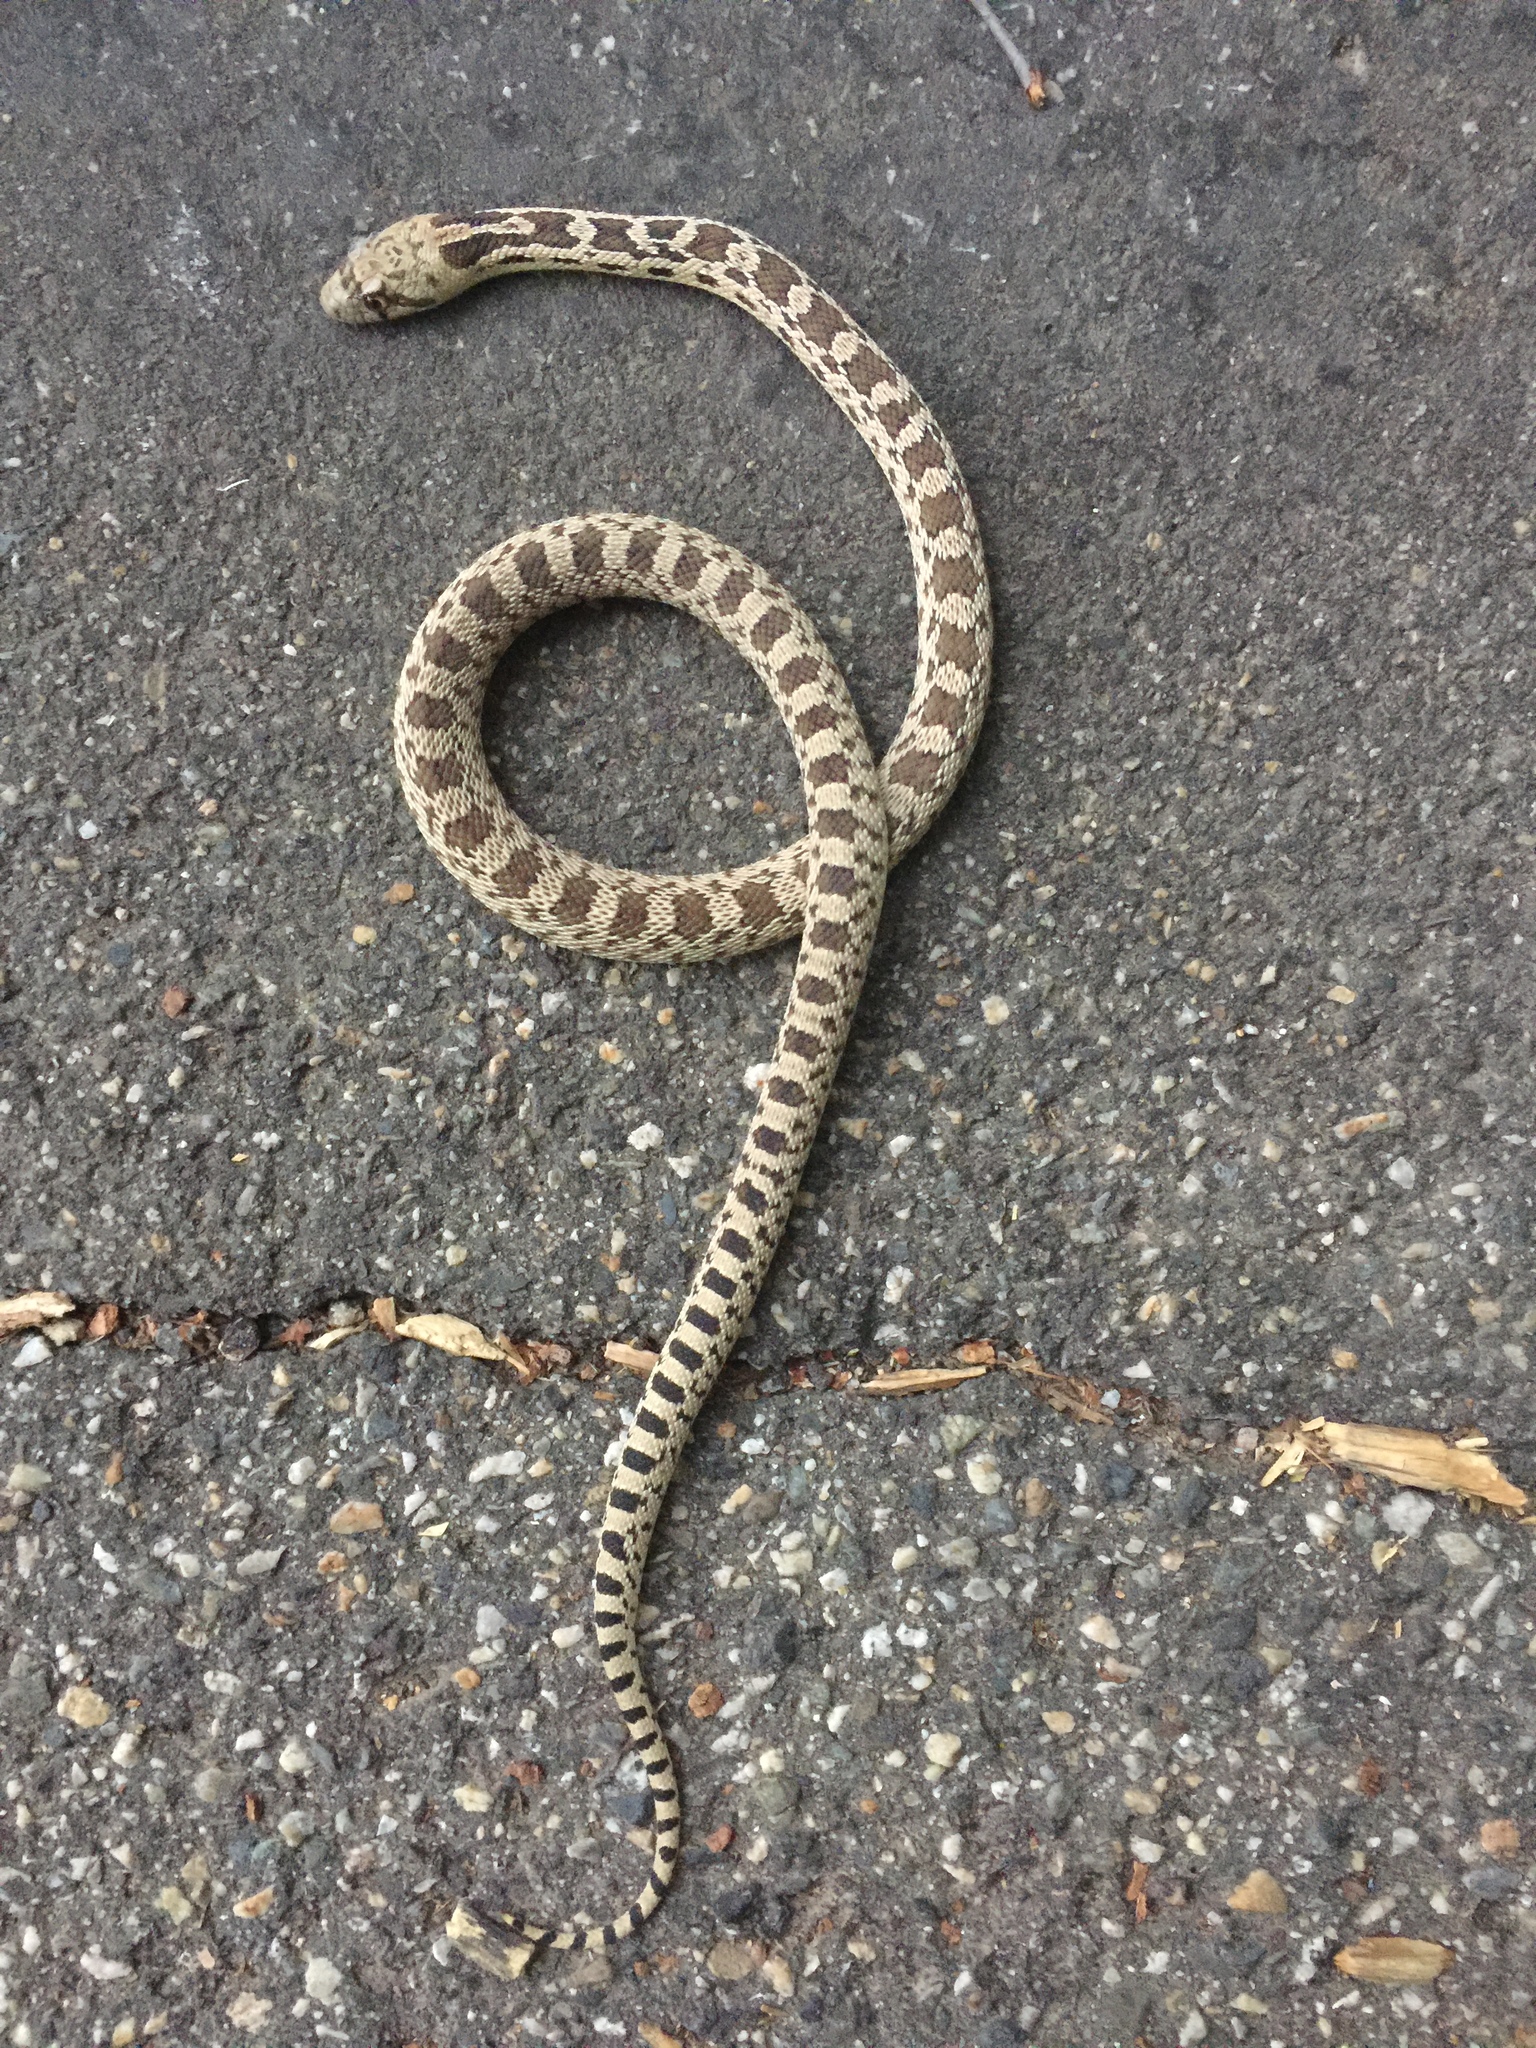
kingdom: Animalia
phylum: Chordata
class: Squamata
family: Colubridae
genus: Pituophis
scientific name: Pituophis catenifer
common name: Gopher snake
